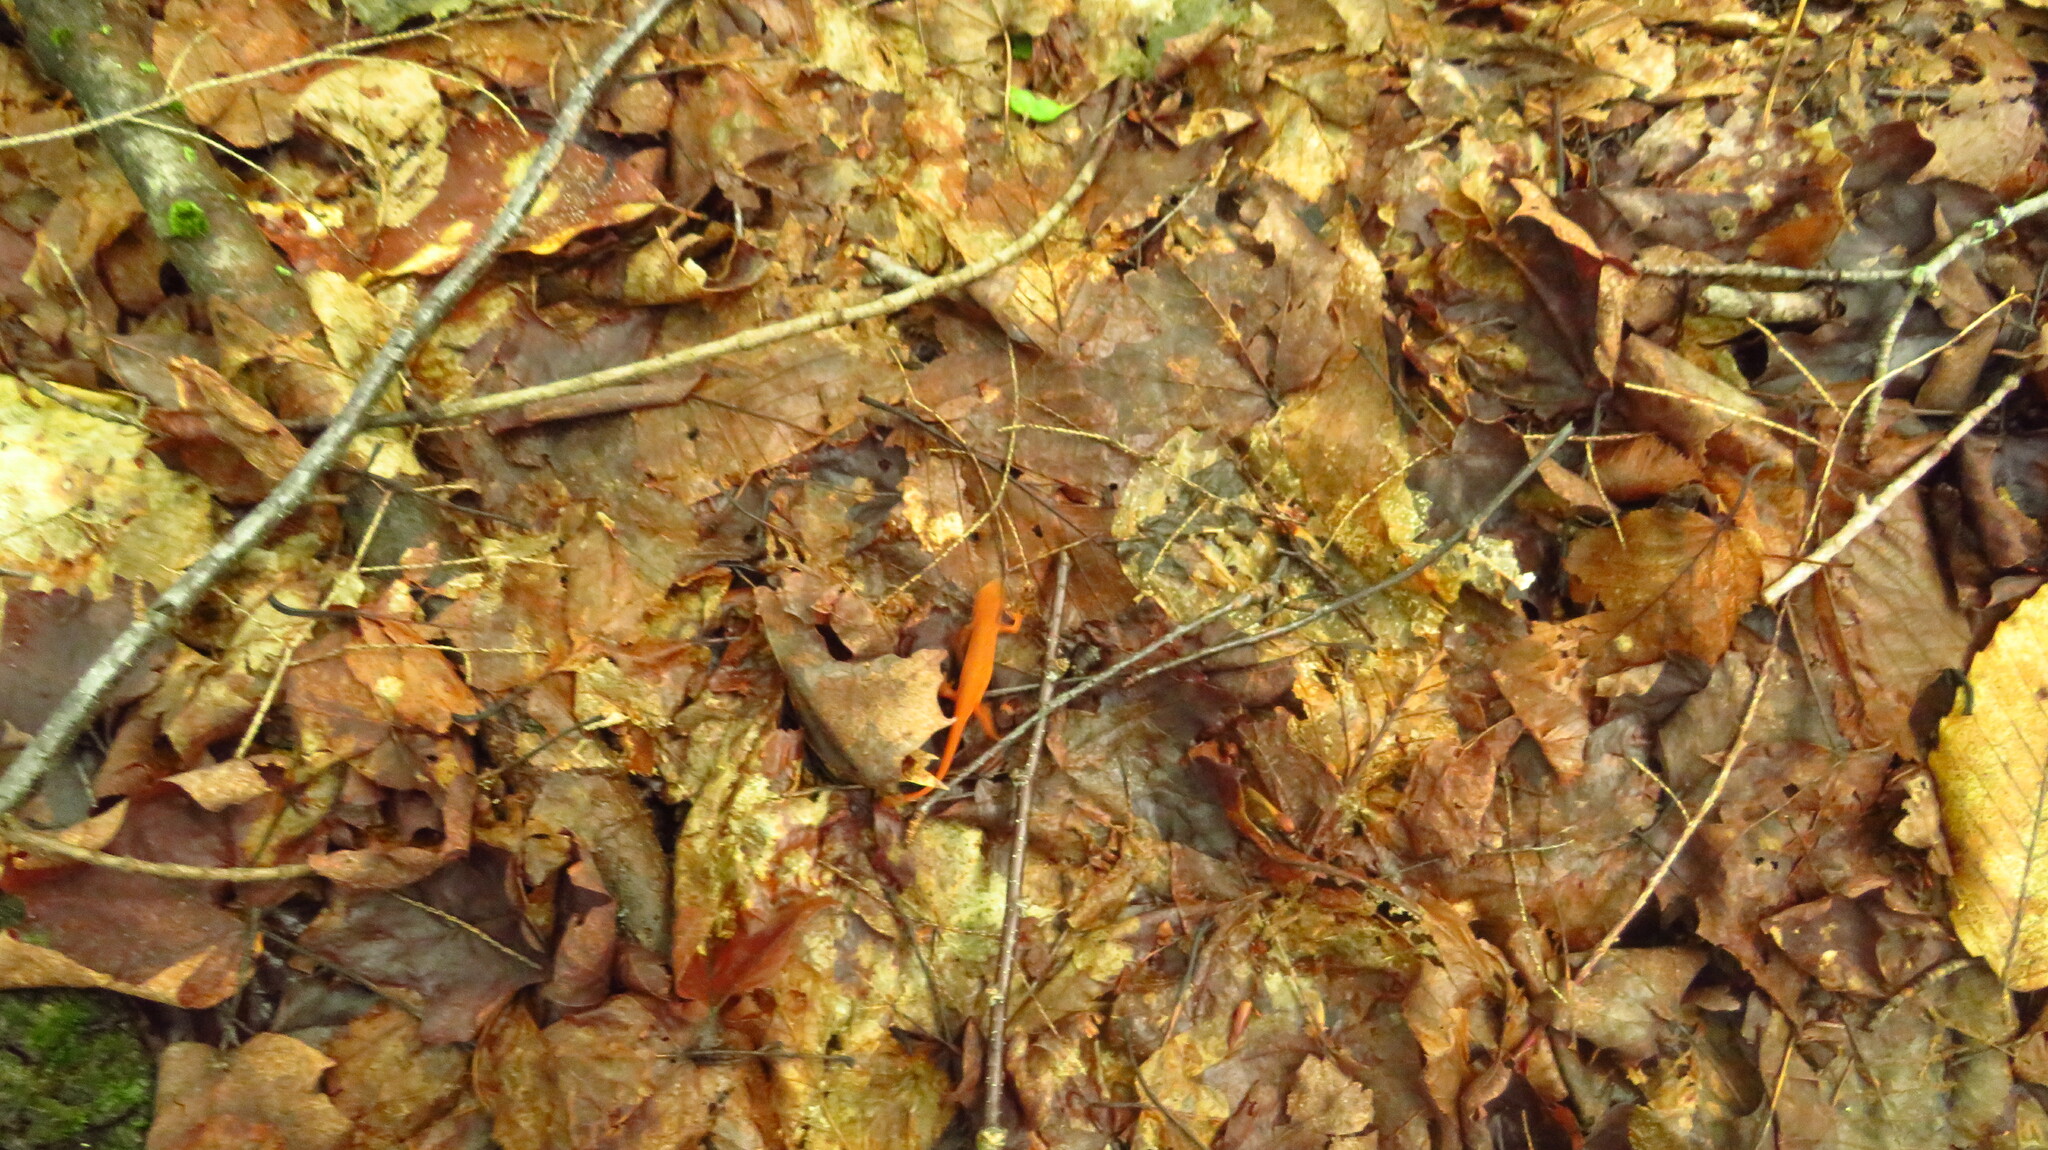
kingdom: Animalia
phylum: Chordata
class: Amphibia
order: Caudata
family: Salamandridae
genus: Notophthalmus
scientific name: Notophthalmus viridescens
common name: Eastern newt
